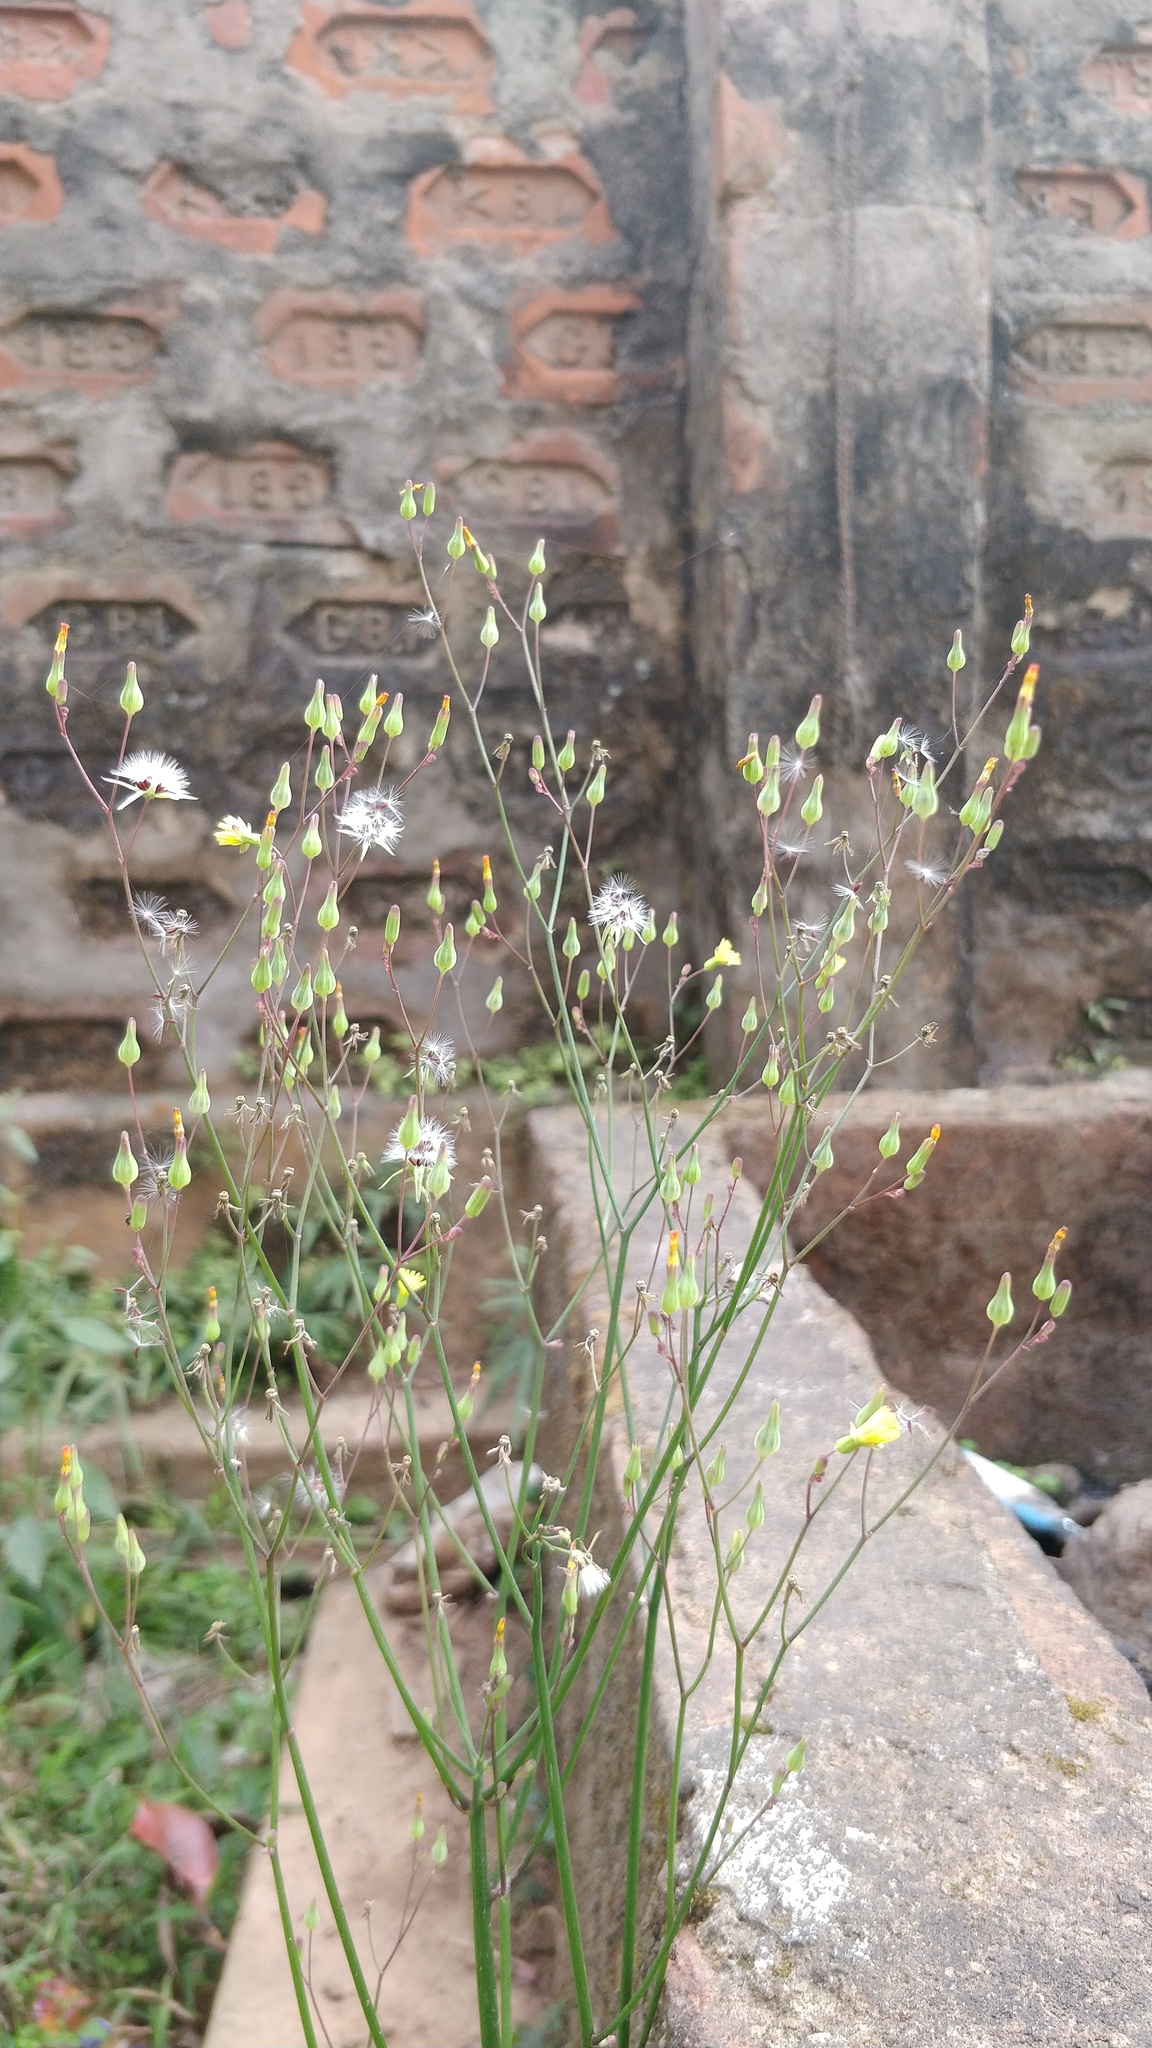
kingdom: Plantae
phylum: Tracheophyta
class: Magnoliopsida
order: Asterales
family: Asteraceae
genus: Youngia
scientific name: Youngia japonica
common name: Oriental false hawksbeard
